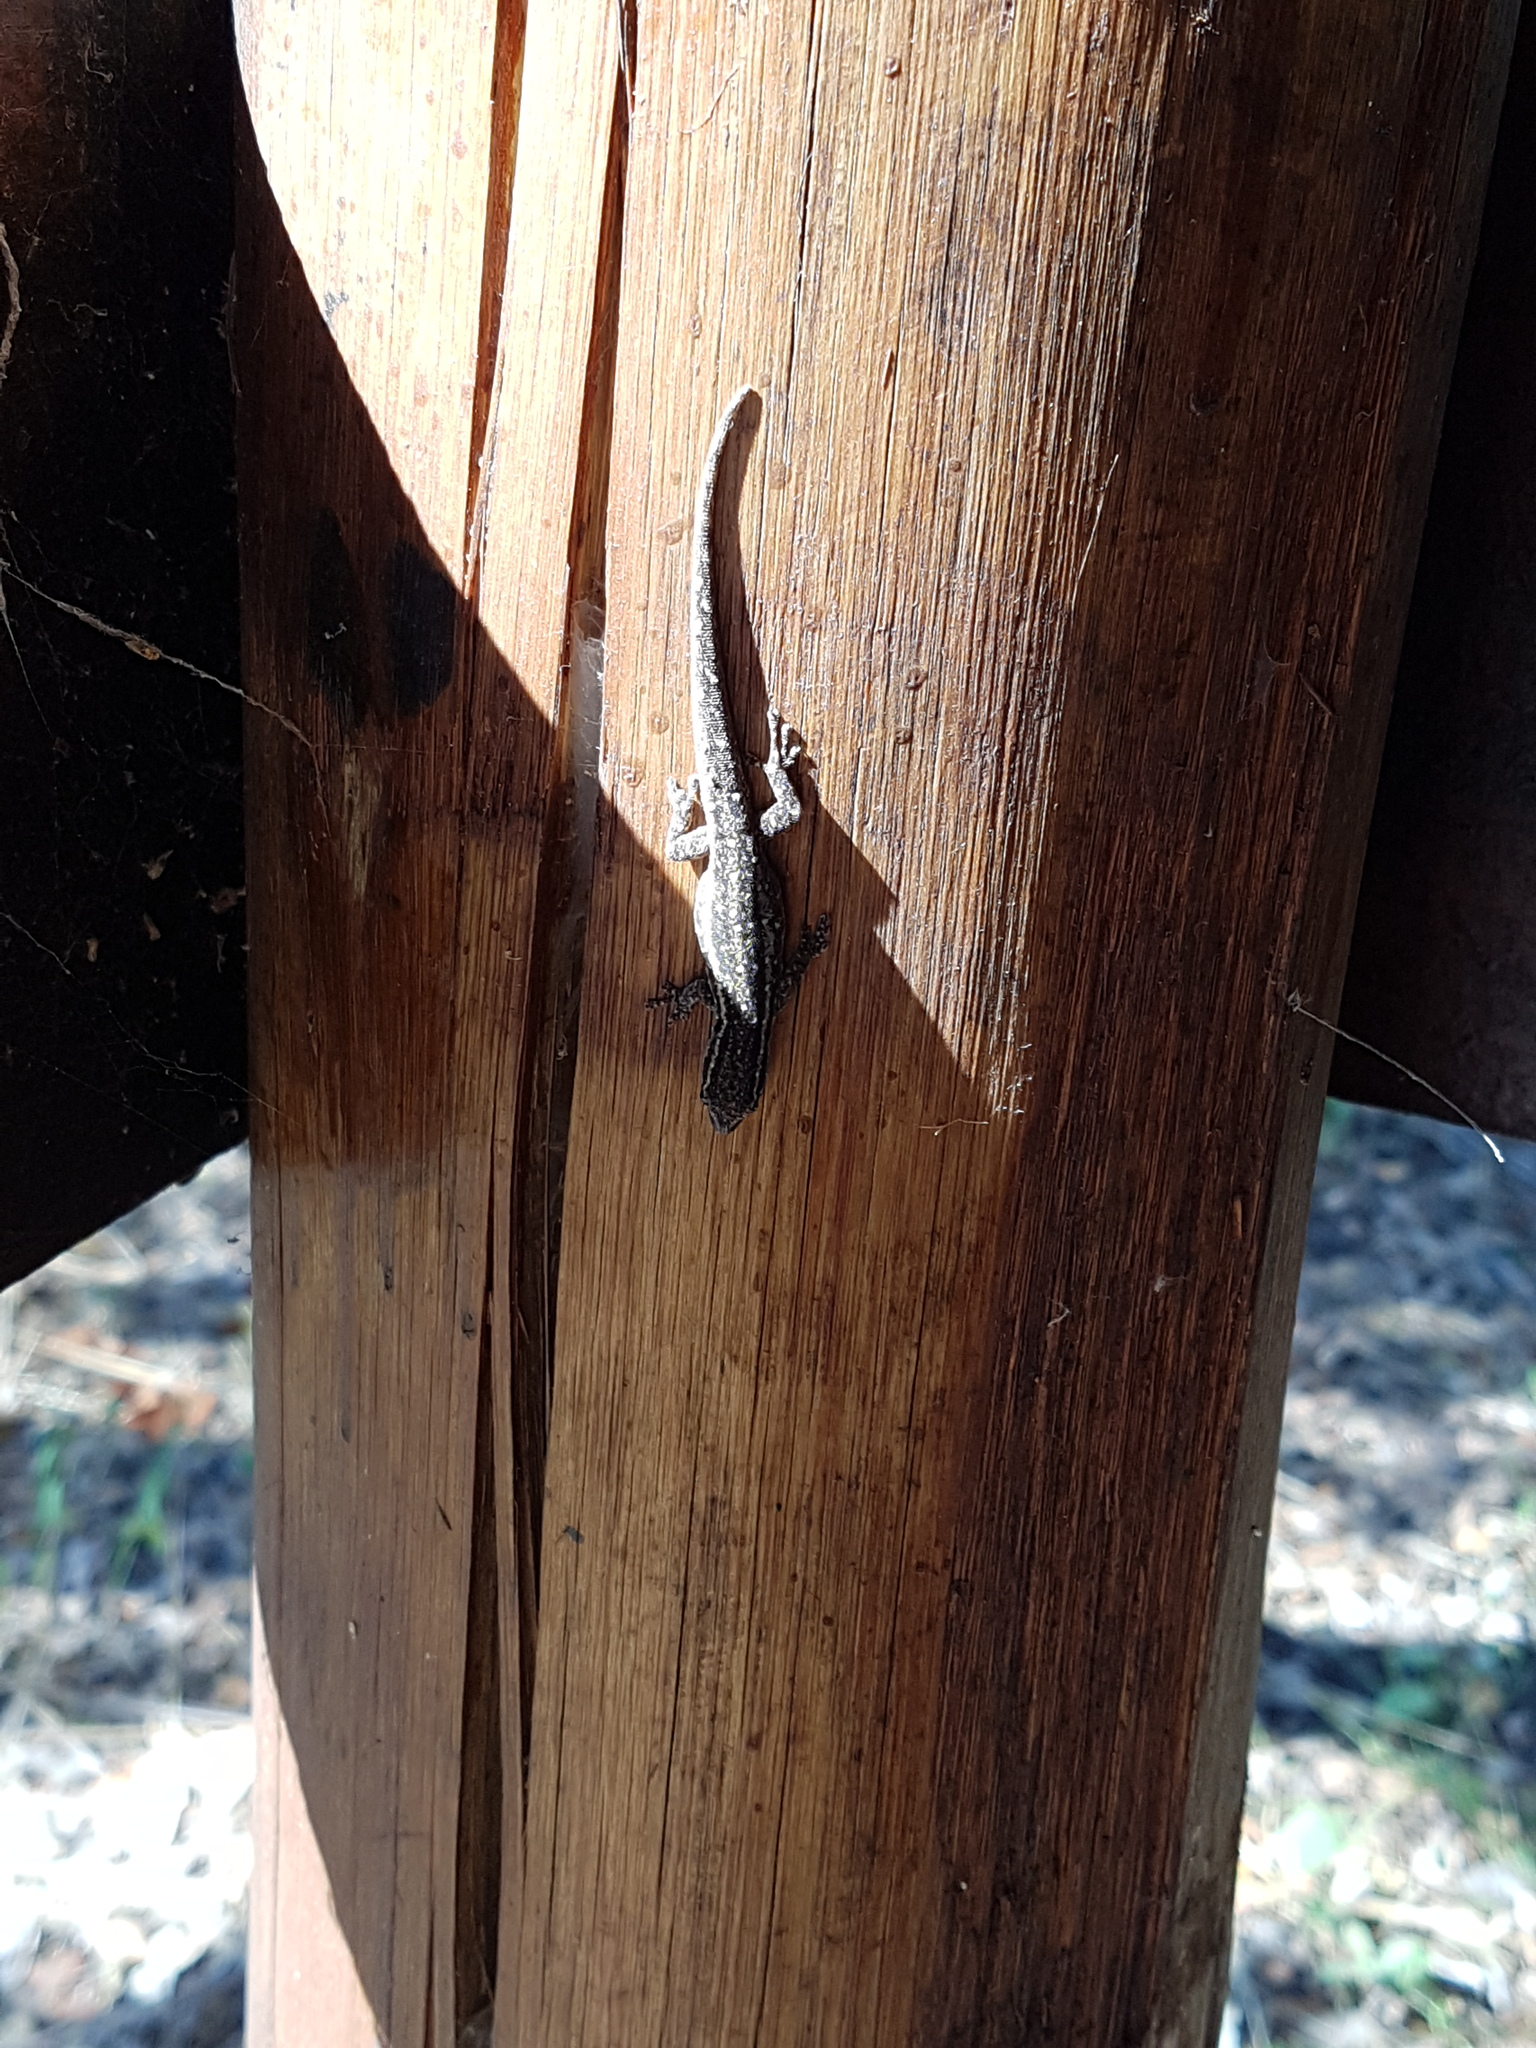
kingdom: Animalia
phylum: Chordata
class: Squamata
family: Gekkonidae
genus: Lygodactylus
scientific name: Lygodactylus capensis
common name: Cape dwarf gecko
